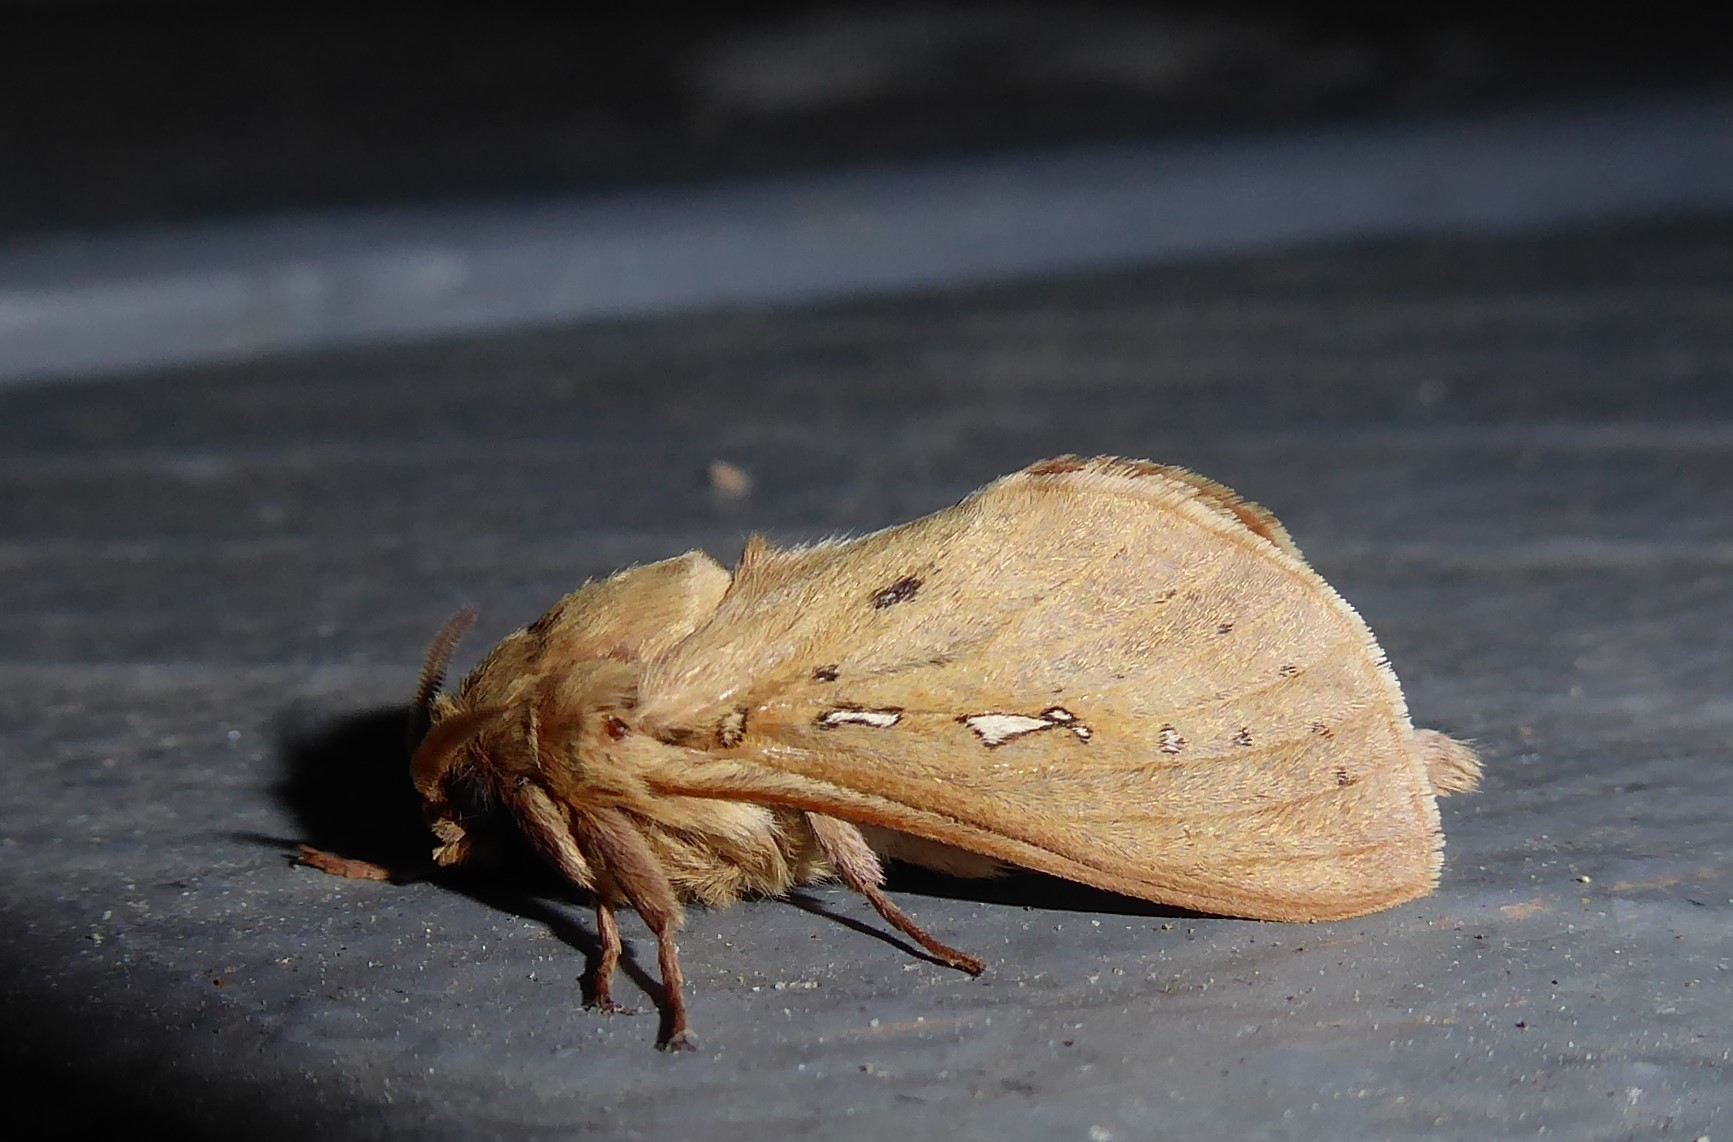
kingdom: Animalia
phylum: Arthropoda
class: Insecta
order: Lepidoptera
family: Hepialidae
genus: Wiseana
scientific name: Wiseana copularis
